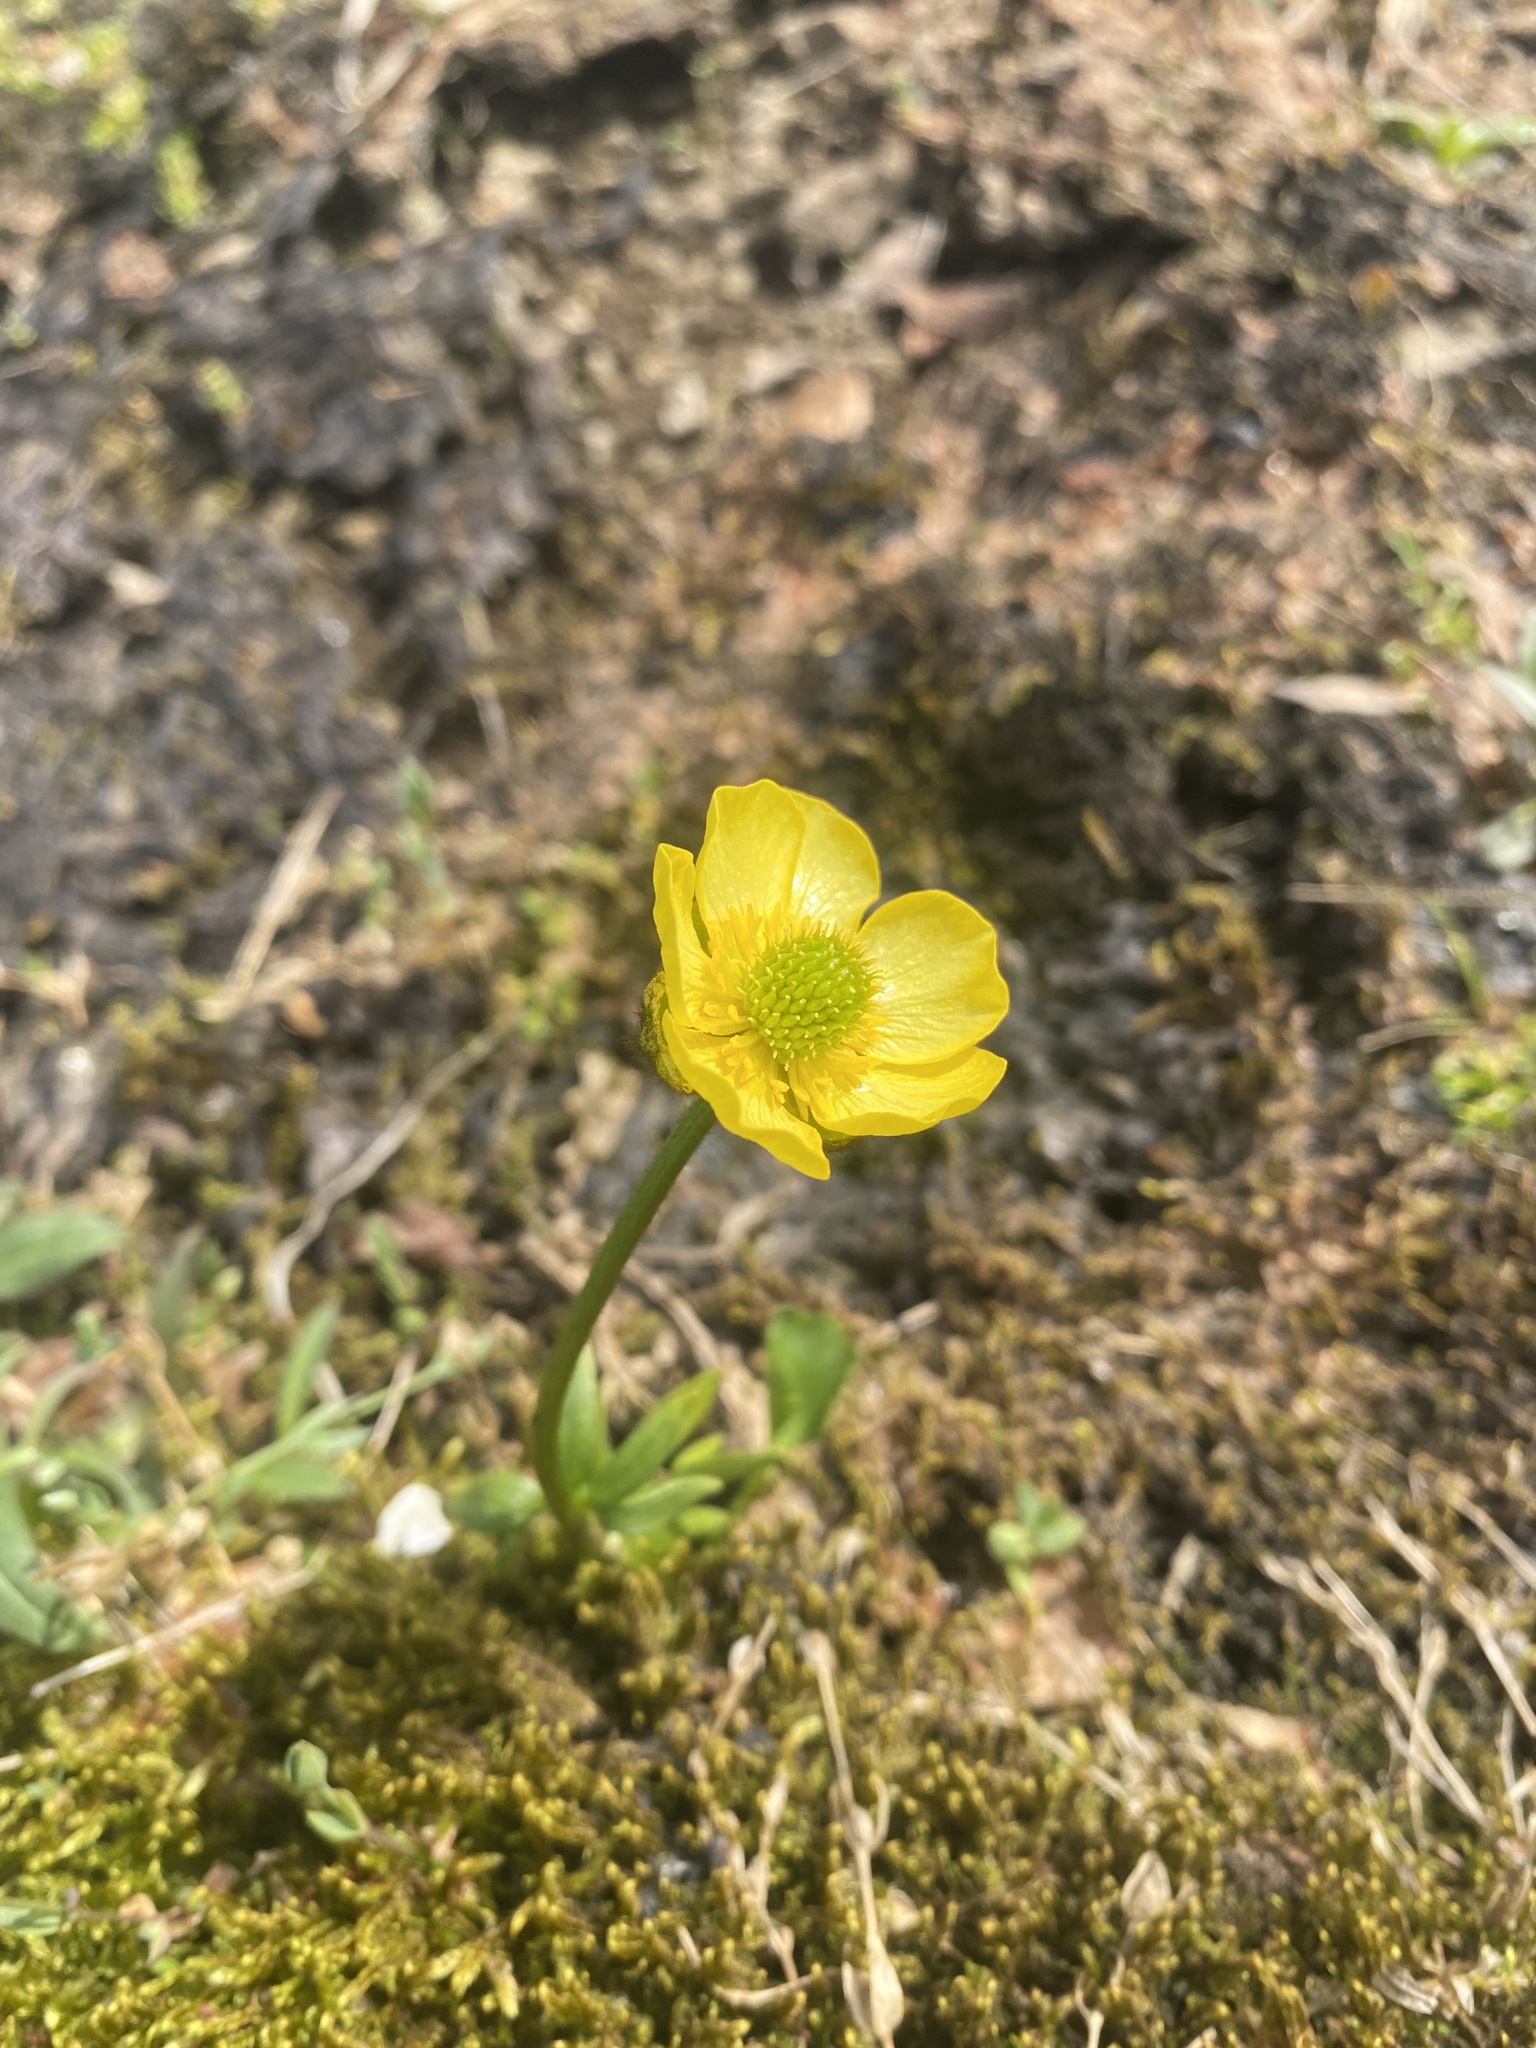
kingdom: Plantae
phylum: Tracheophyta
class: Magnoliopsida
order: Ranunculales
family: Ranunculaceae
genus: Ranunculus
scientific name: Ranunculus sulphureus
